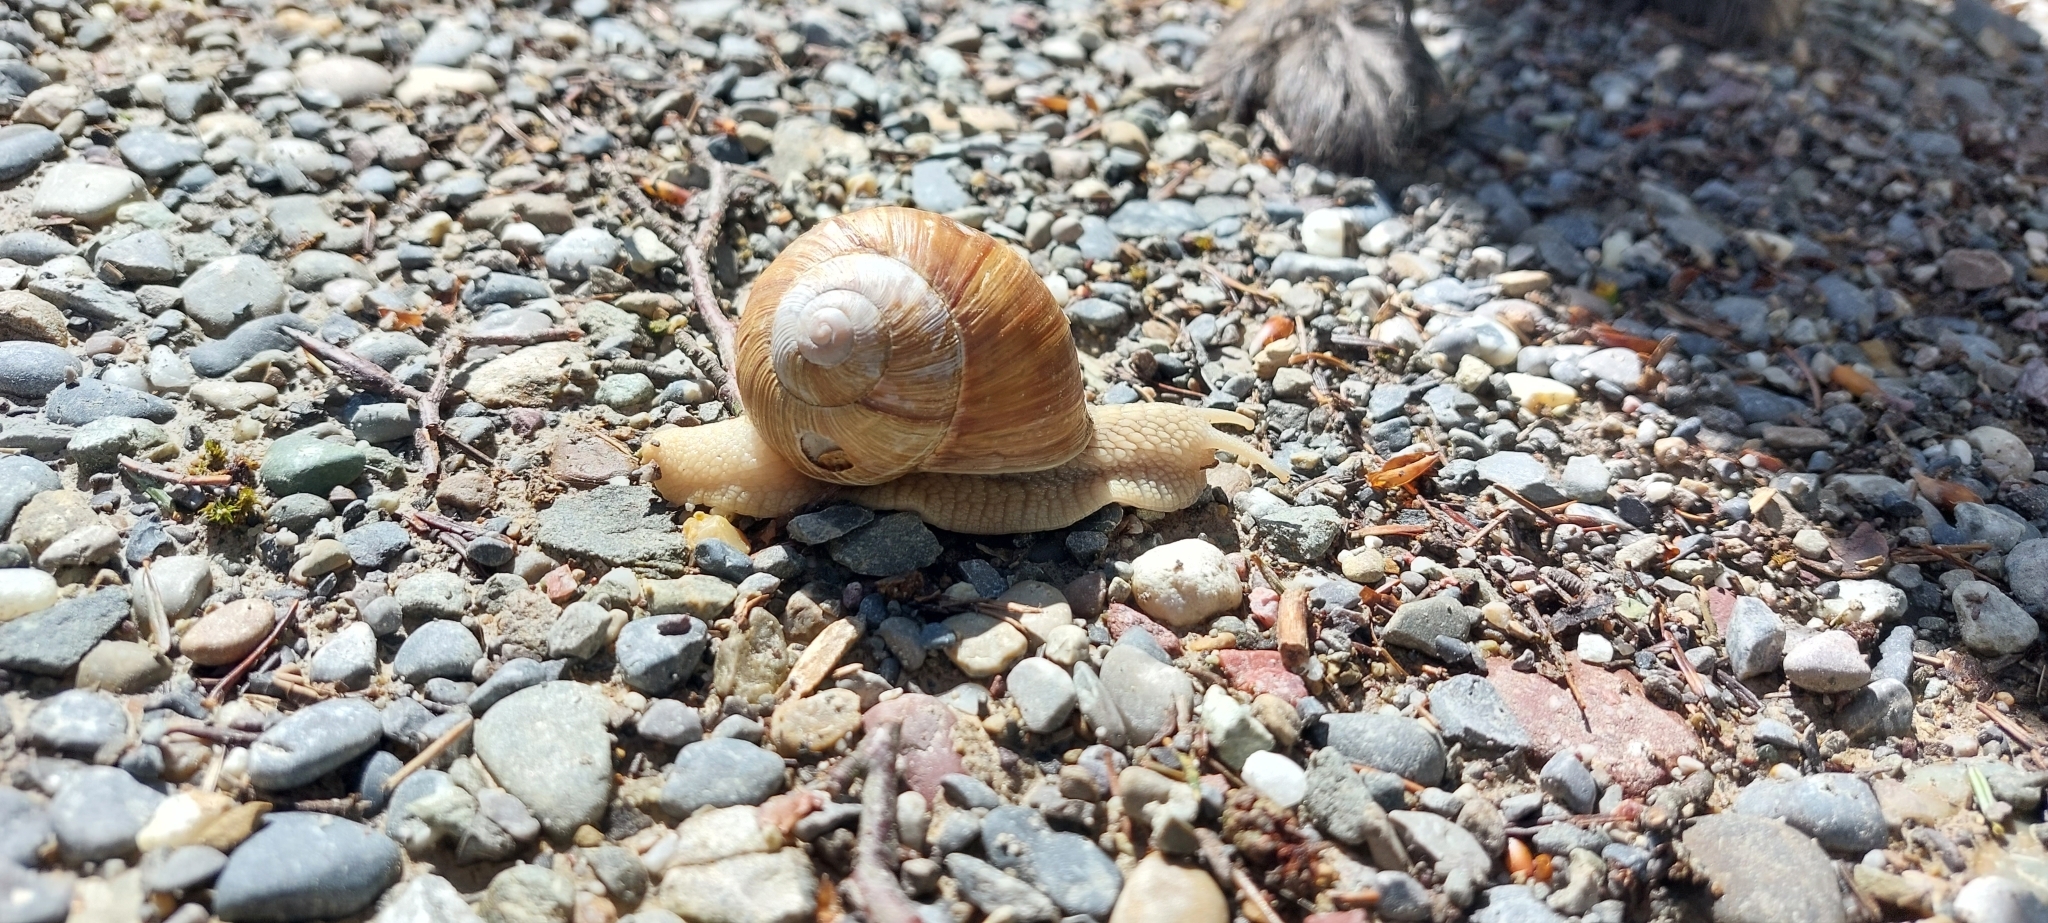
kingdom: Animalia
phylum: Mollusca
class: Gastropoda
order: Stylommatophora
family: Helicidae
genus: Helix
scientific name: Helix pomatia
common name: Roman snail
